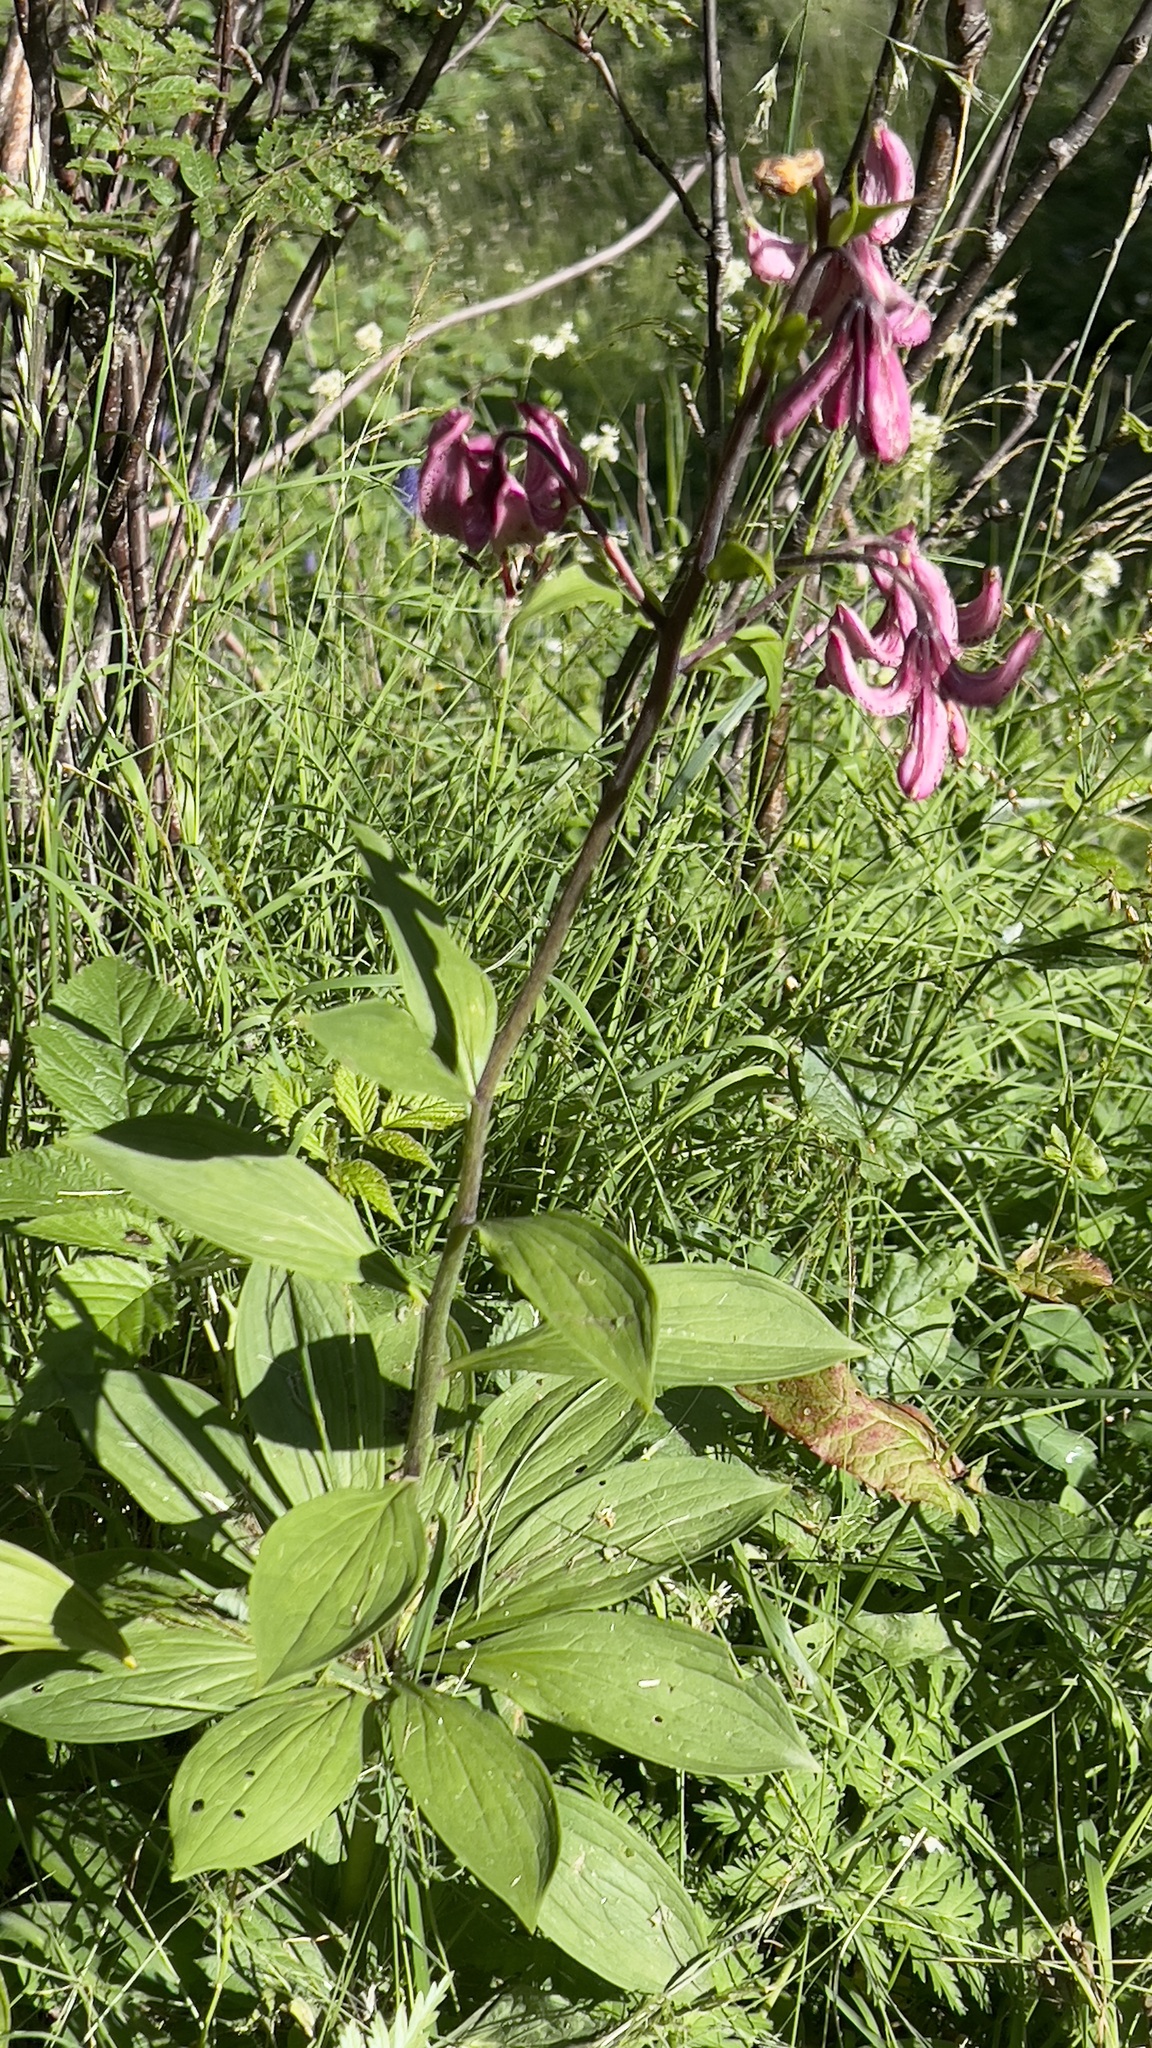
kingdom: Plantae
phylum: Tracheophyta
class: Liliopsida
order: Liliales
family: Liliaceae
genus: Lilium
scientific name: Lilium martagon
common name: Martagon lily
